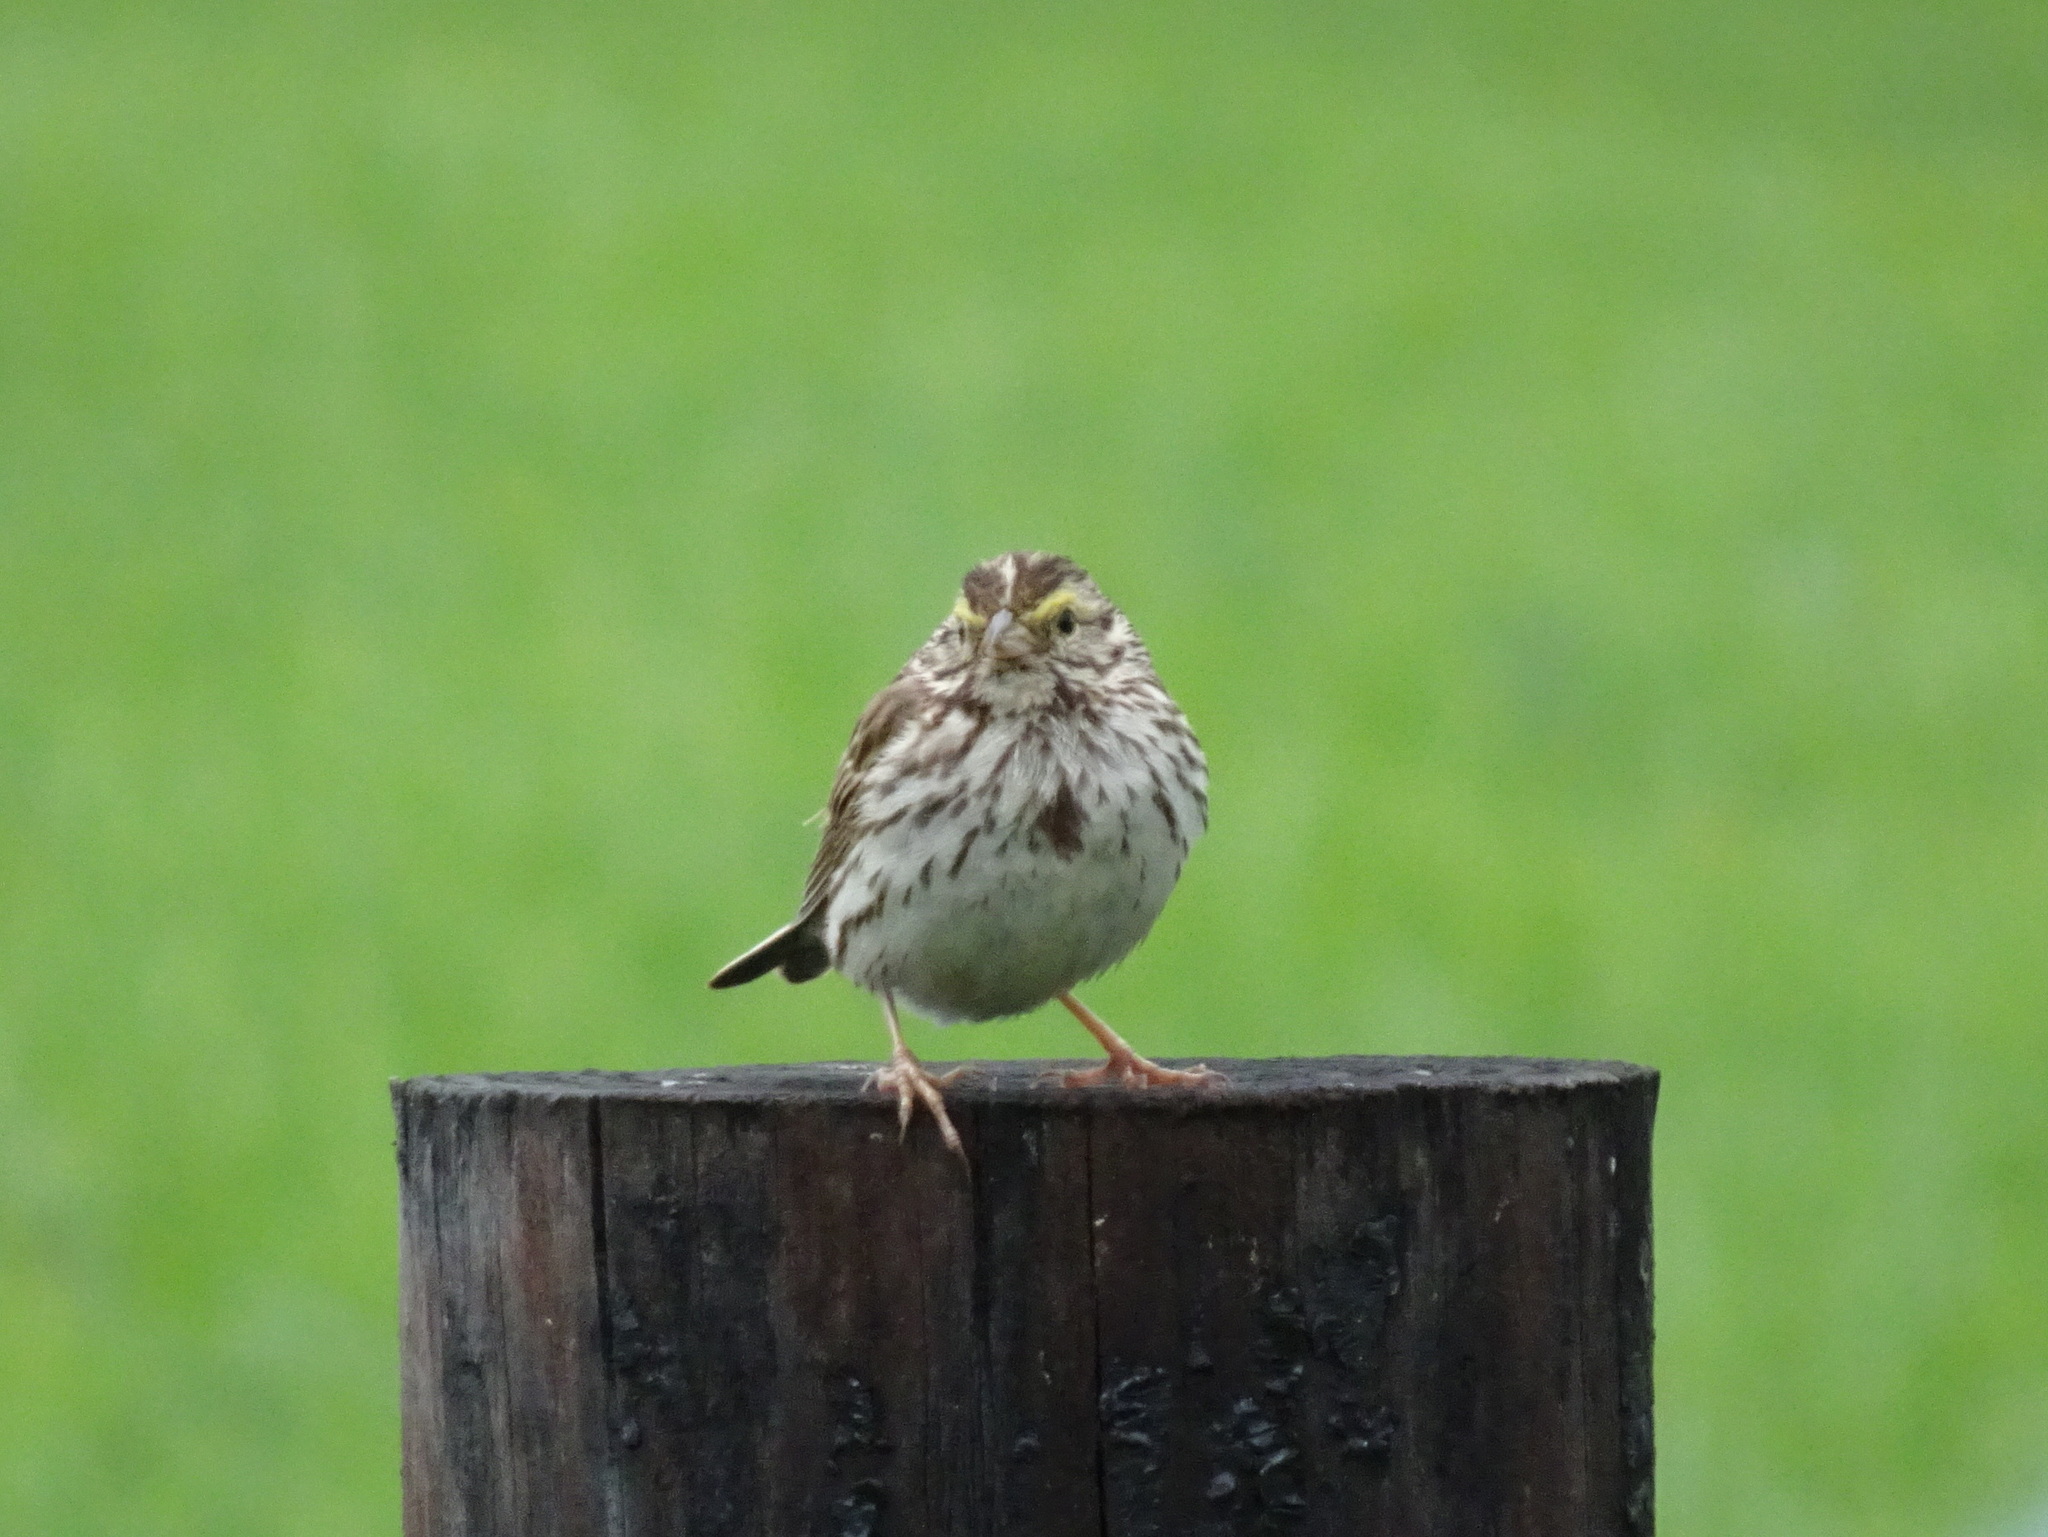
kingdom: Animalia
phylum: Chordata
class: Aves
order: Passeriformes
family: Passerellidae
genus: Passerculus
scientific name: Passerculus sandwichensis
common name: Savannah sparrow
